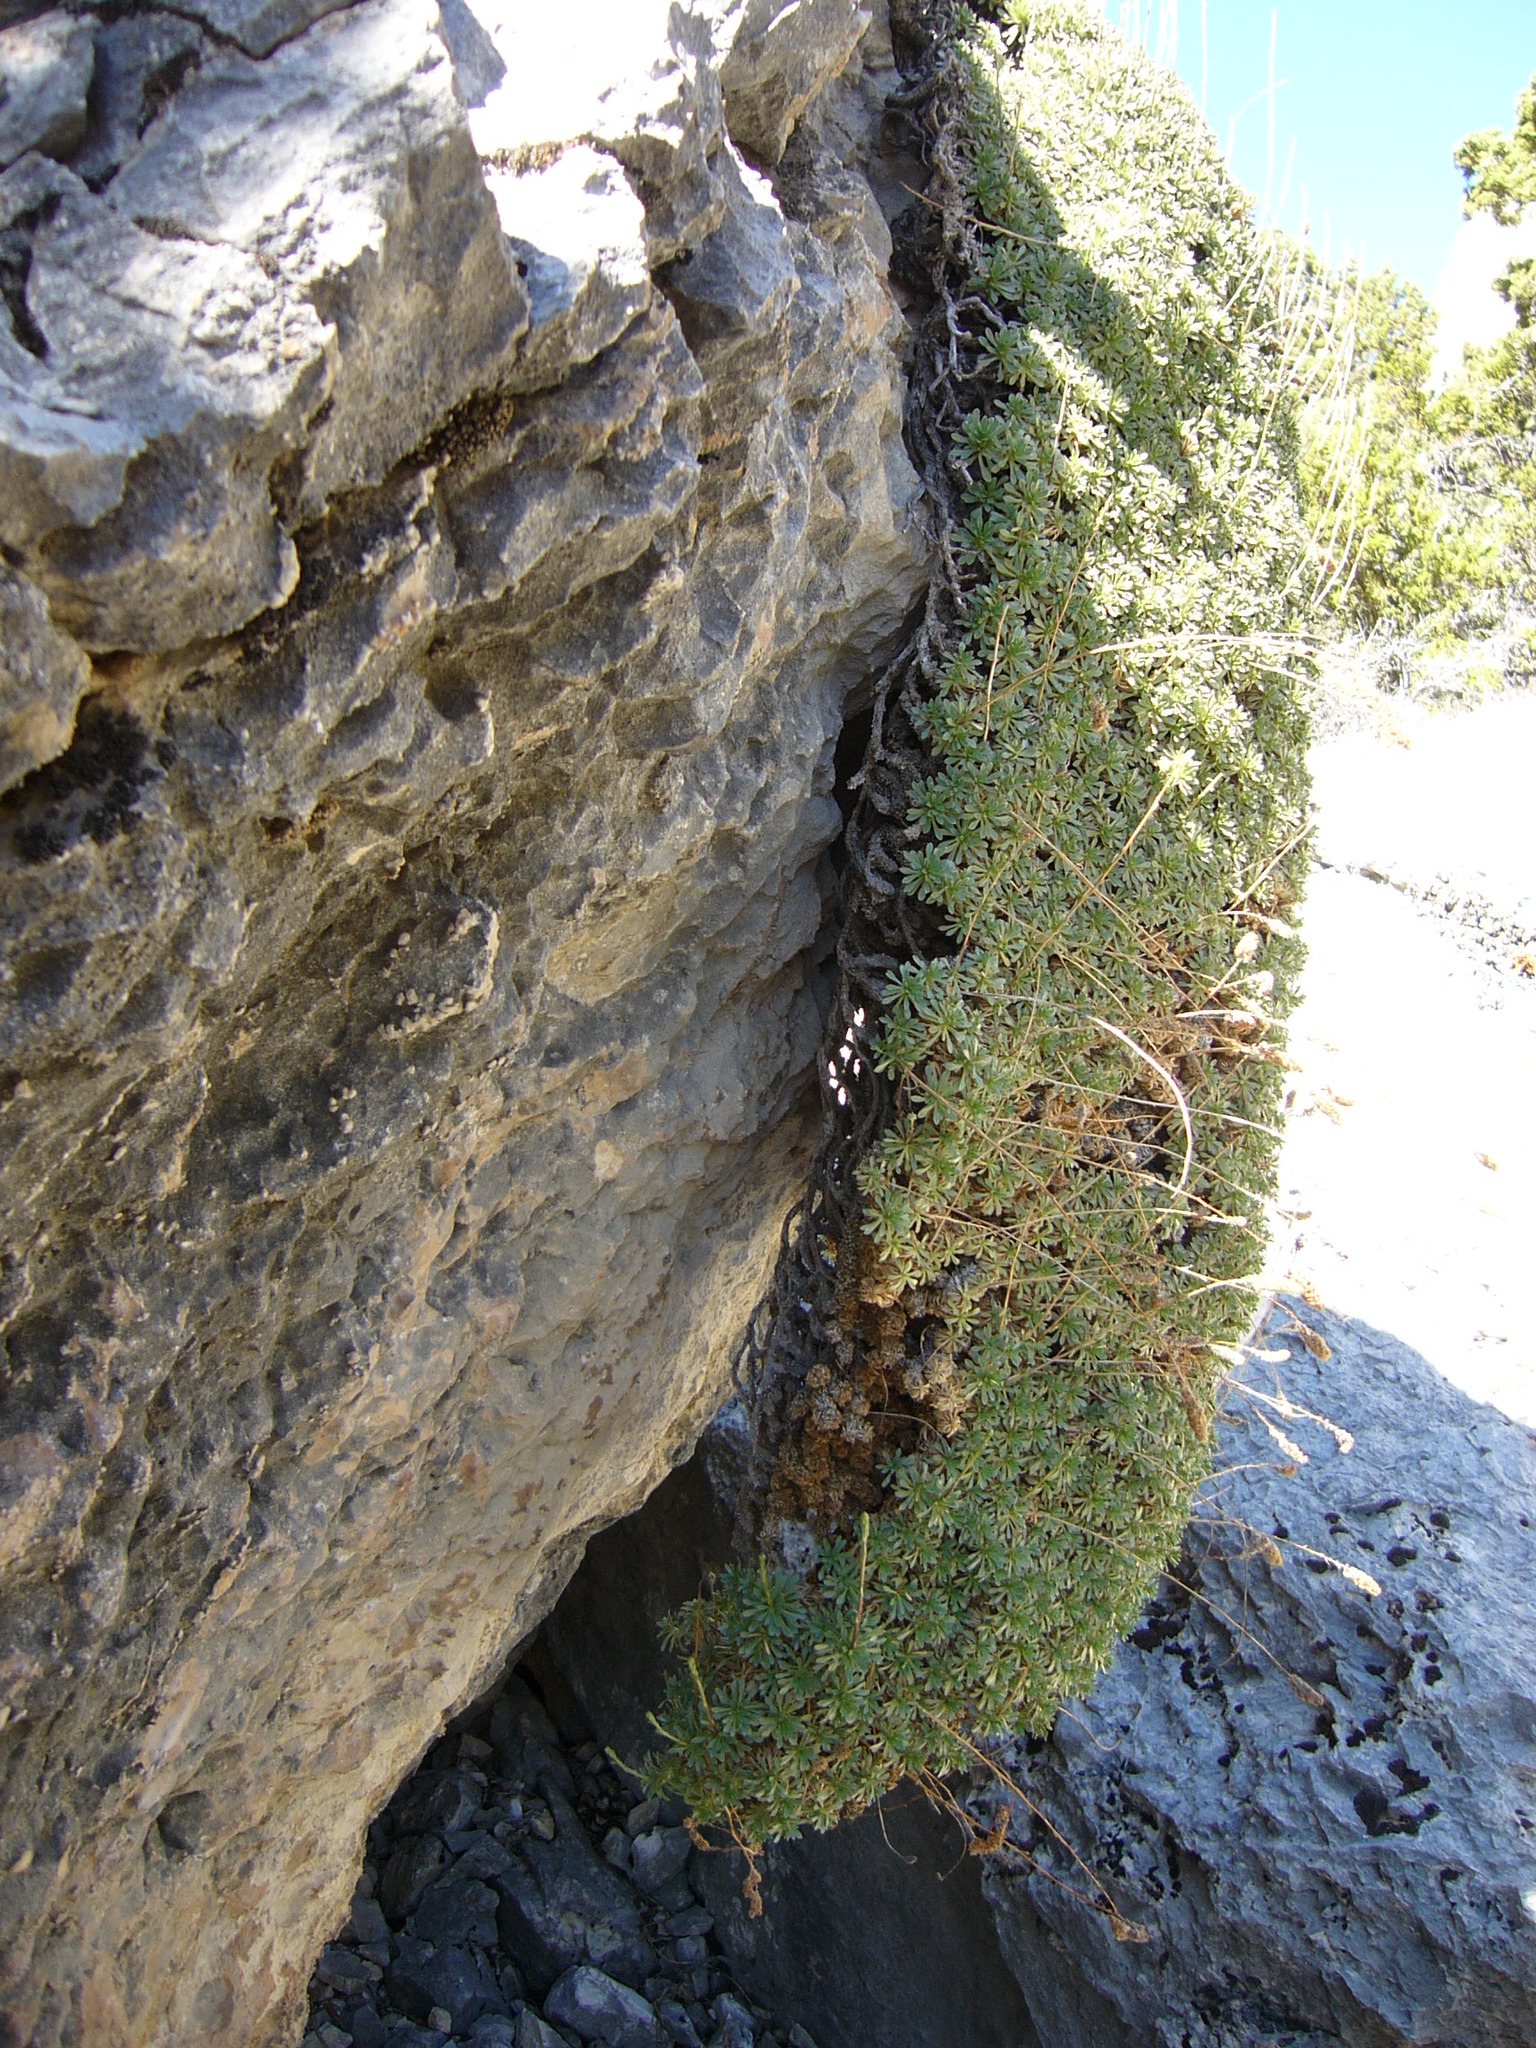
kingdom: Plantae
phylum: Tracheophyta
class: Magnoliopsida
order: Rosales
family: Rosaceae
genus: Petrophytum
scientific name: Petrophytum caespitosum
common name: Mat rockspirea
